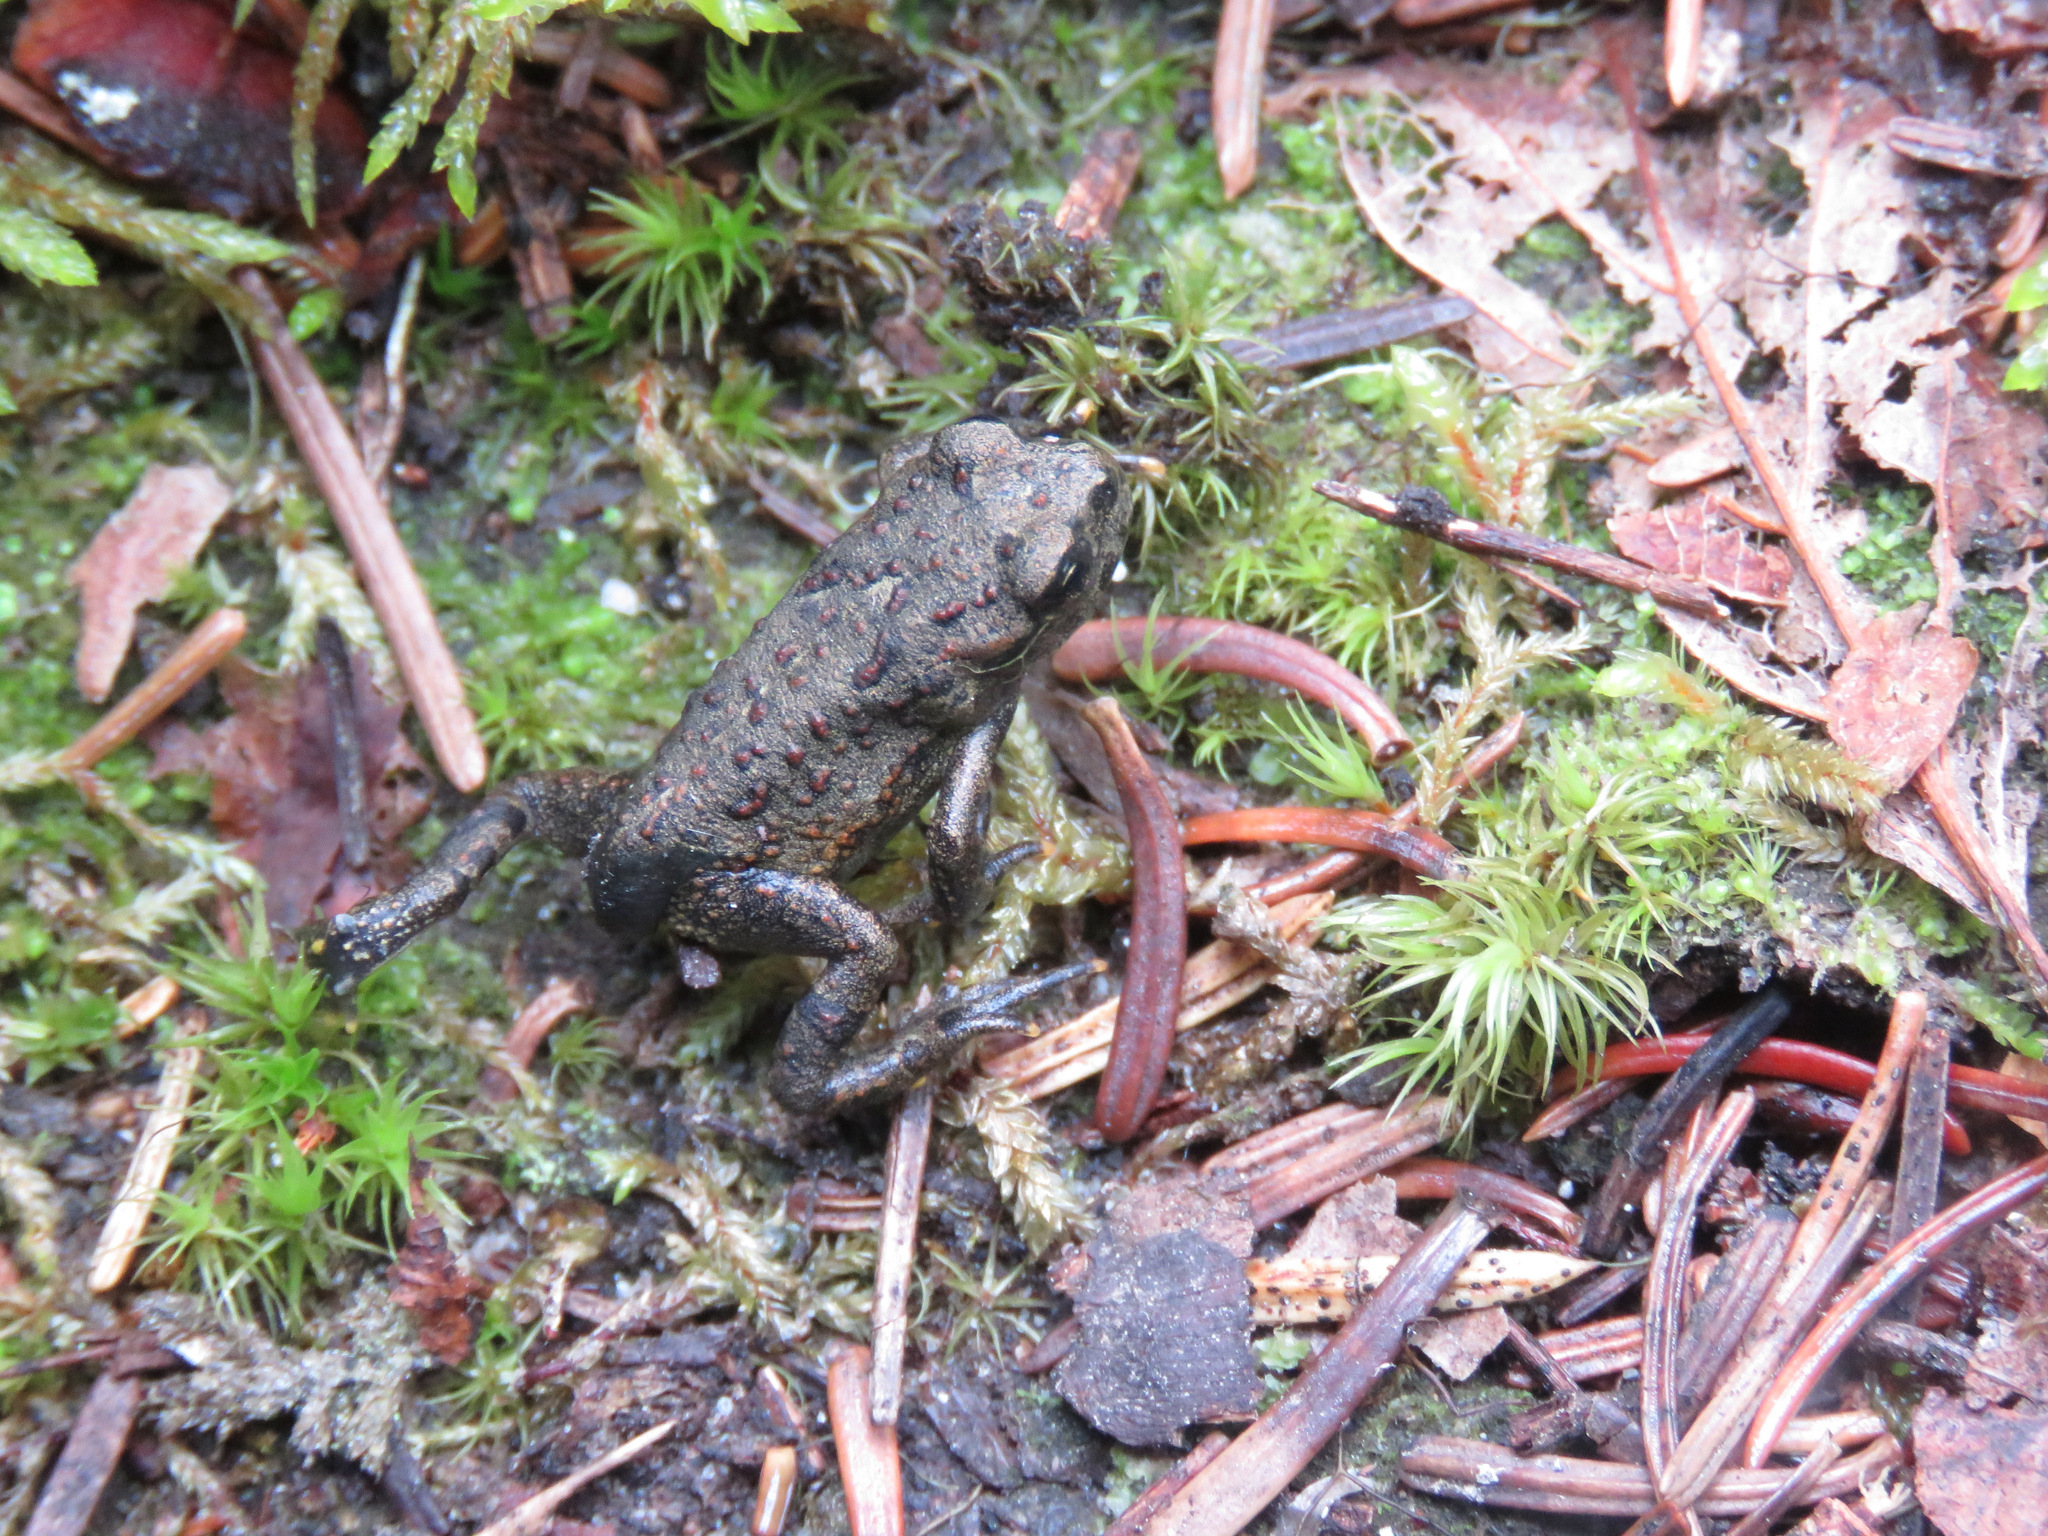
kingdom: Animalia
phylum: Chordata
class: Amphibia
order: Anura
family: Bufonidae
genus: Anaxyrus
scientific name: Anaxyrus boreas
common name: Western toad
